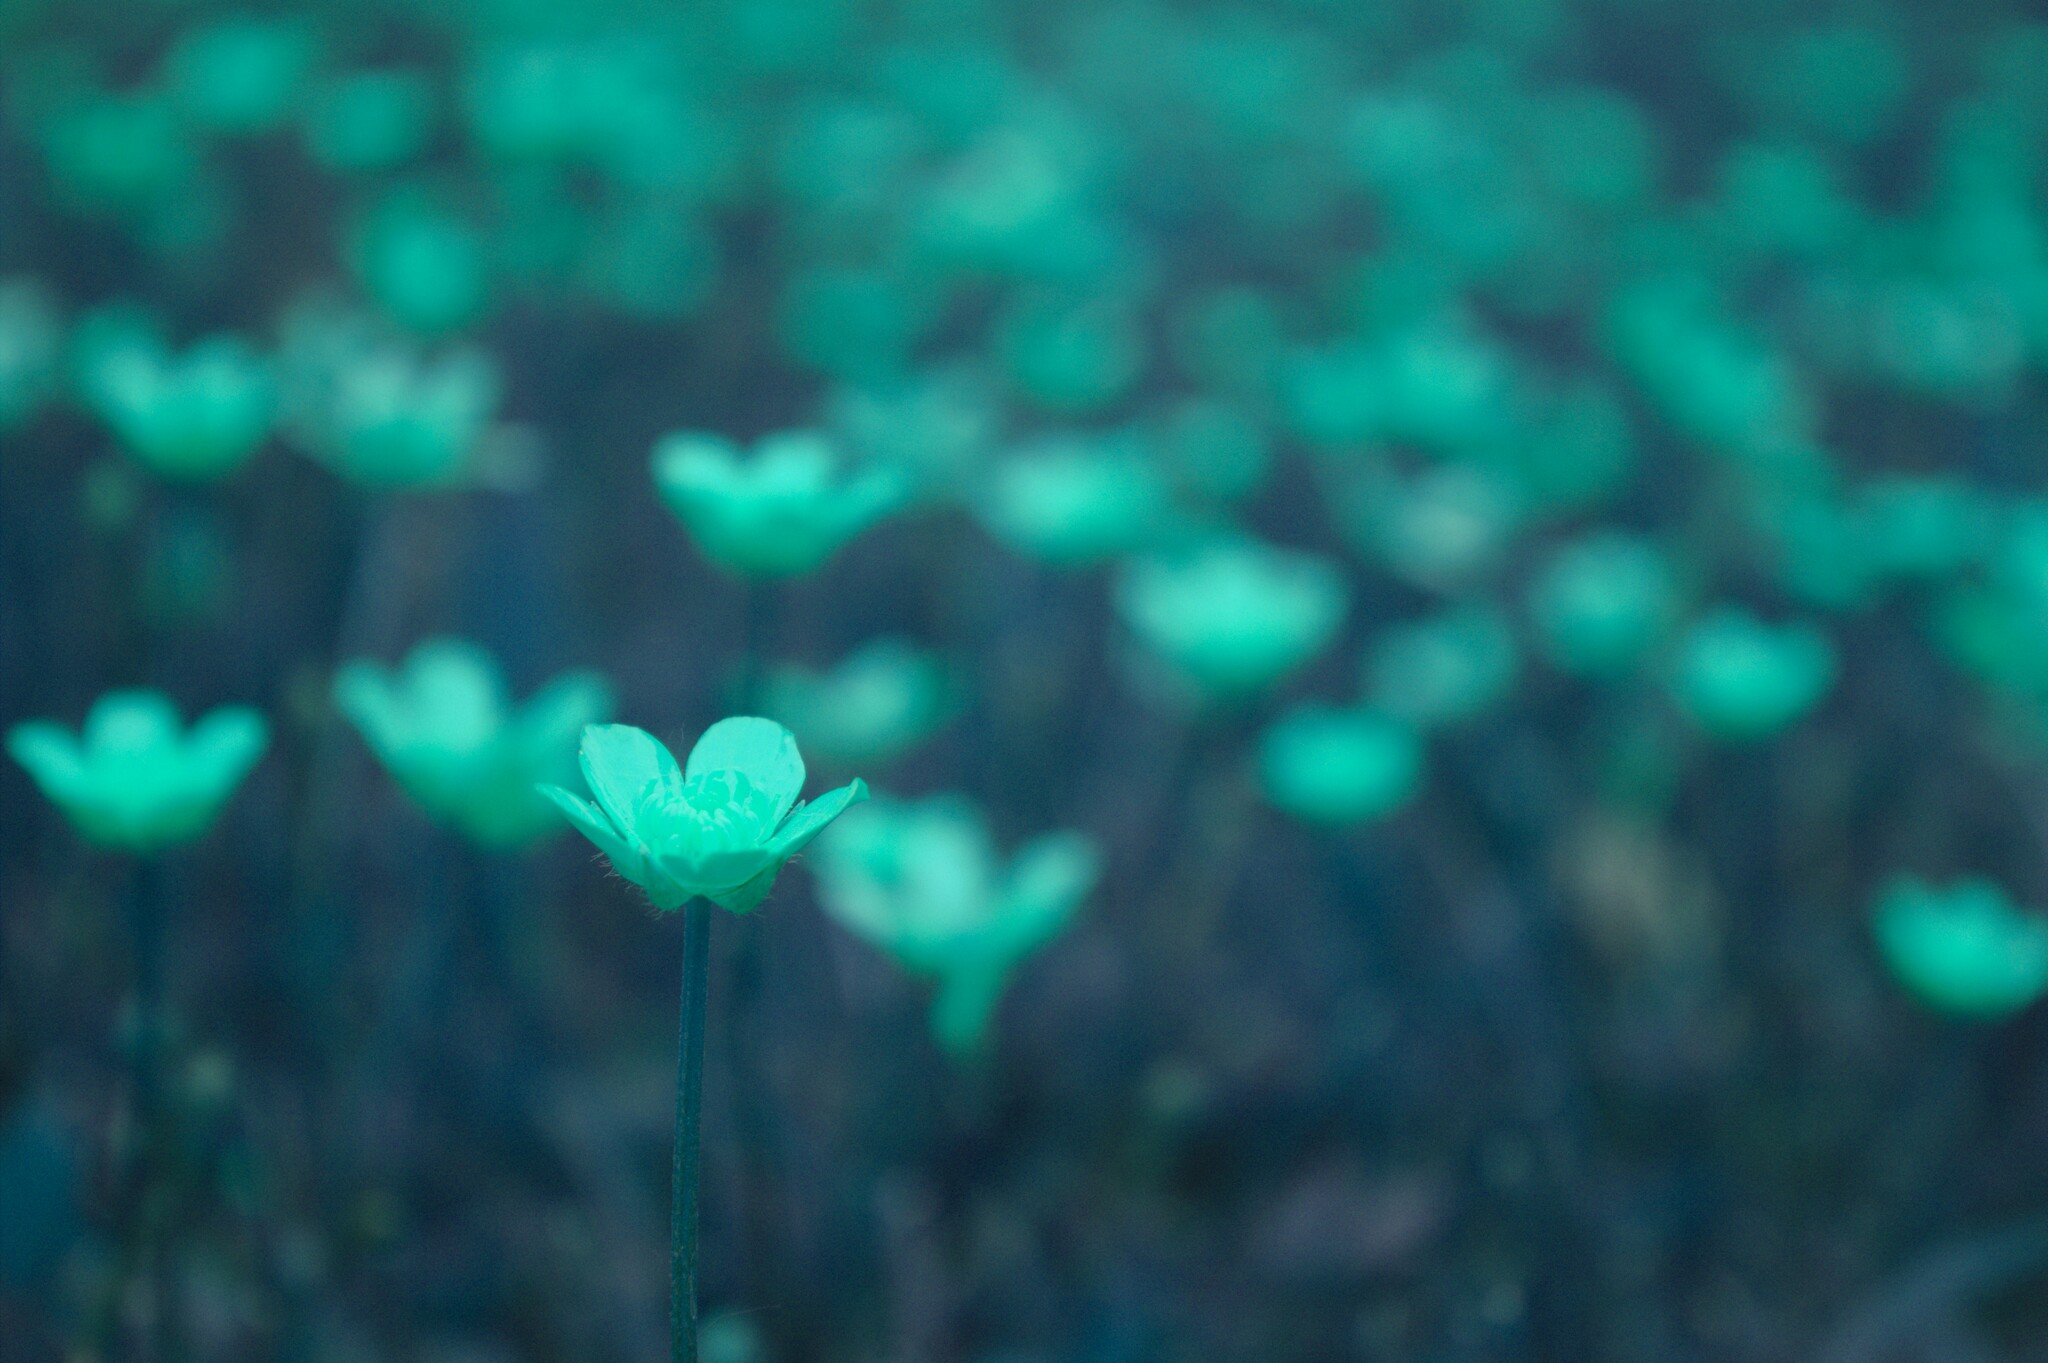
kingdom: Plantae
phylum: Tracheophyta
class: Magnoliopsida
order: Ranunculales
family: Ranunculaceae
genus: Ranunculus
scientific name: Ranunculus acris
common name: Meadow buttercup
